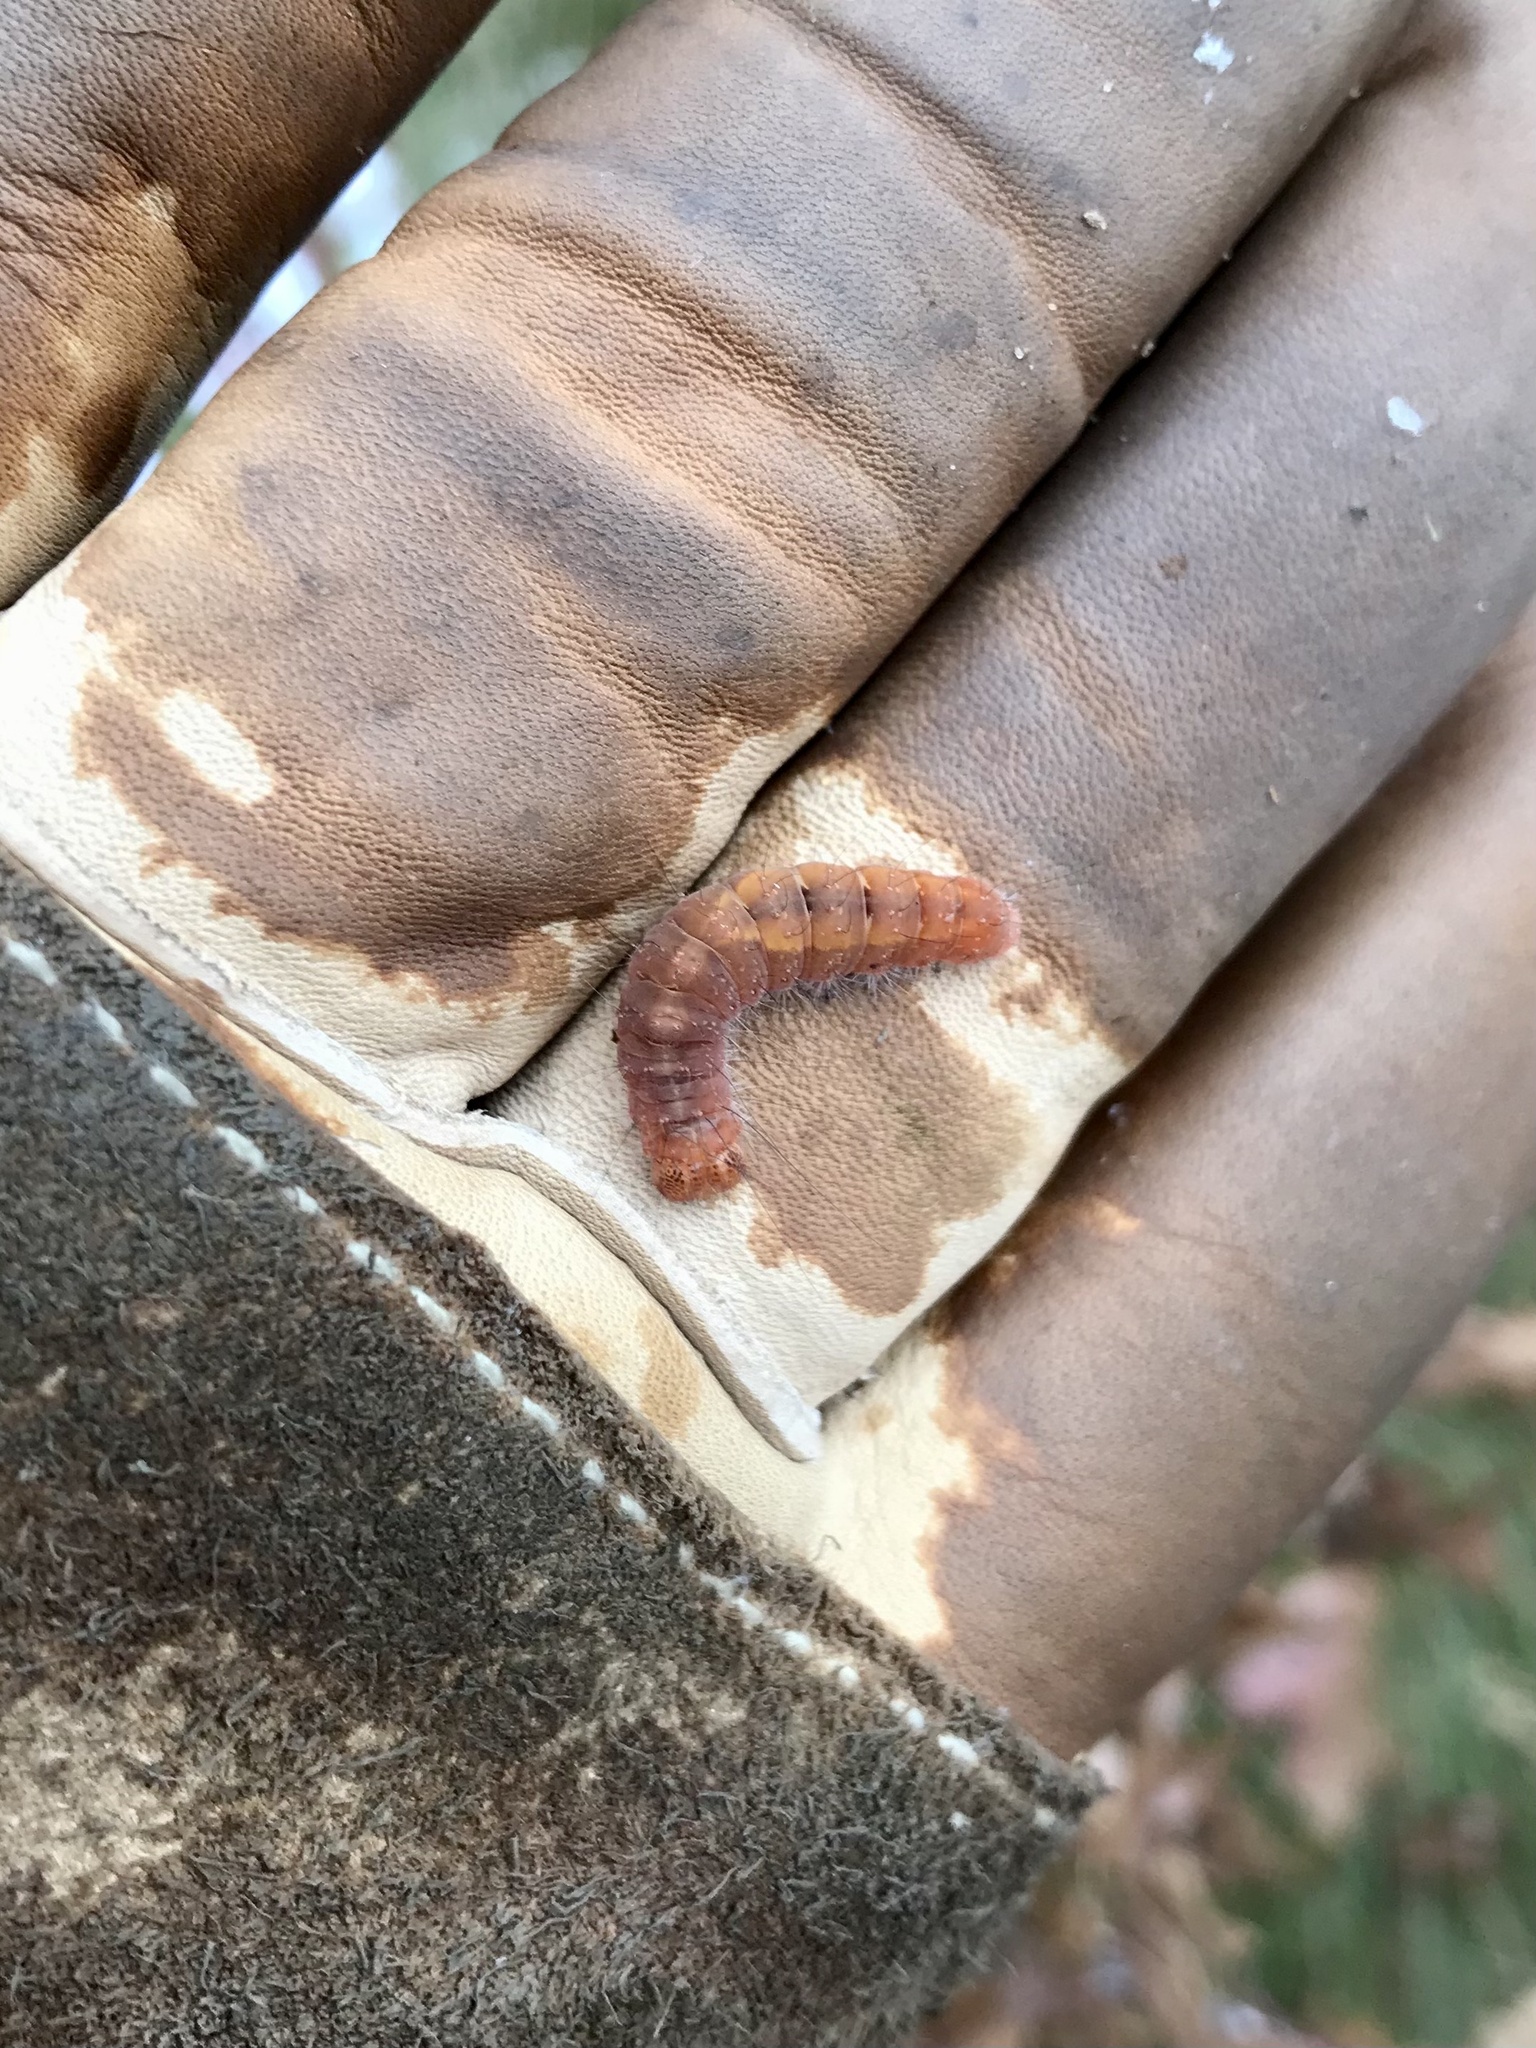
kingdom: Animalia
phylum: Arthropoda
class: Insecta
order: Lepidoptera
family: Noctuidae
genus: Acronicta
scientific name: Acronicta lithospila
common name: Streaked dagger
